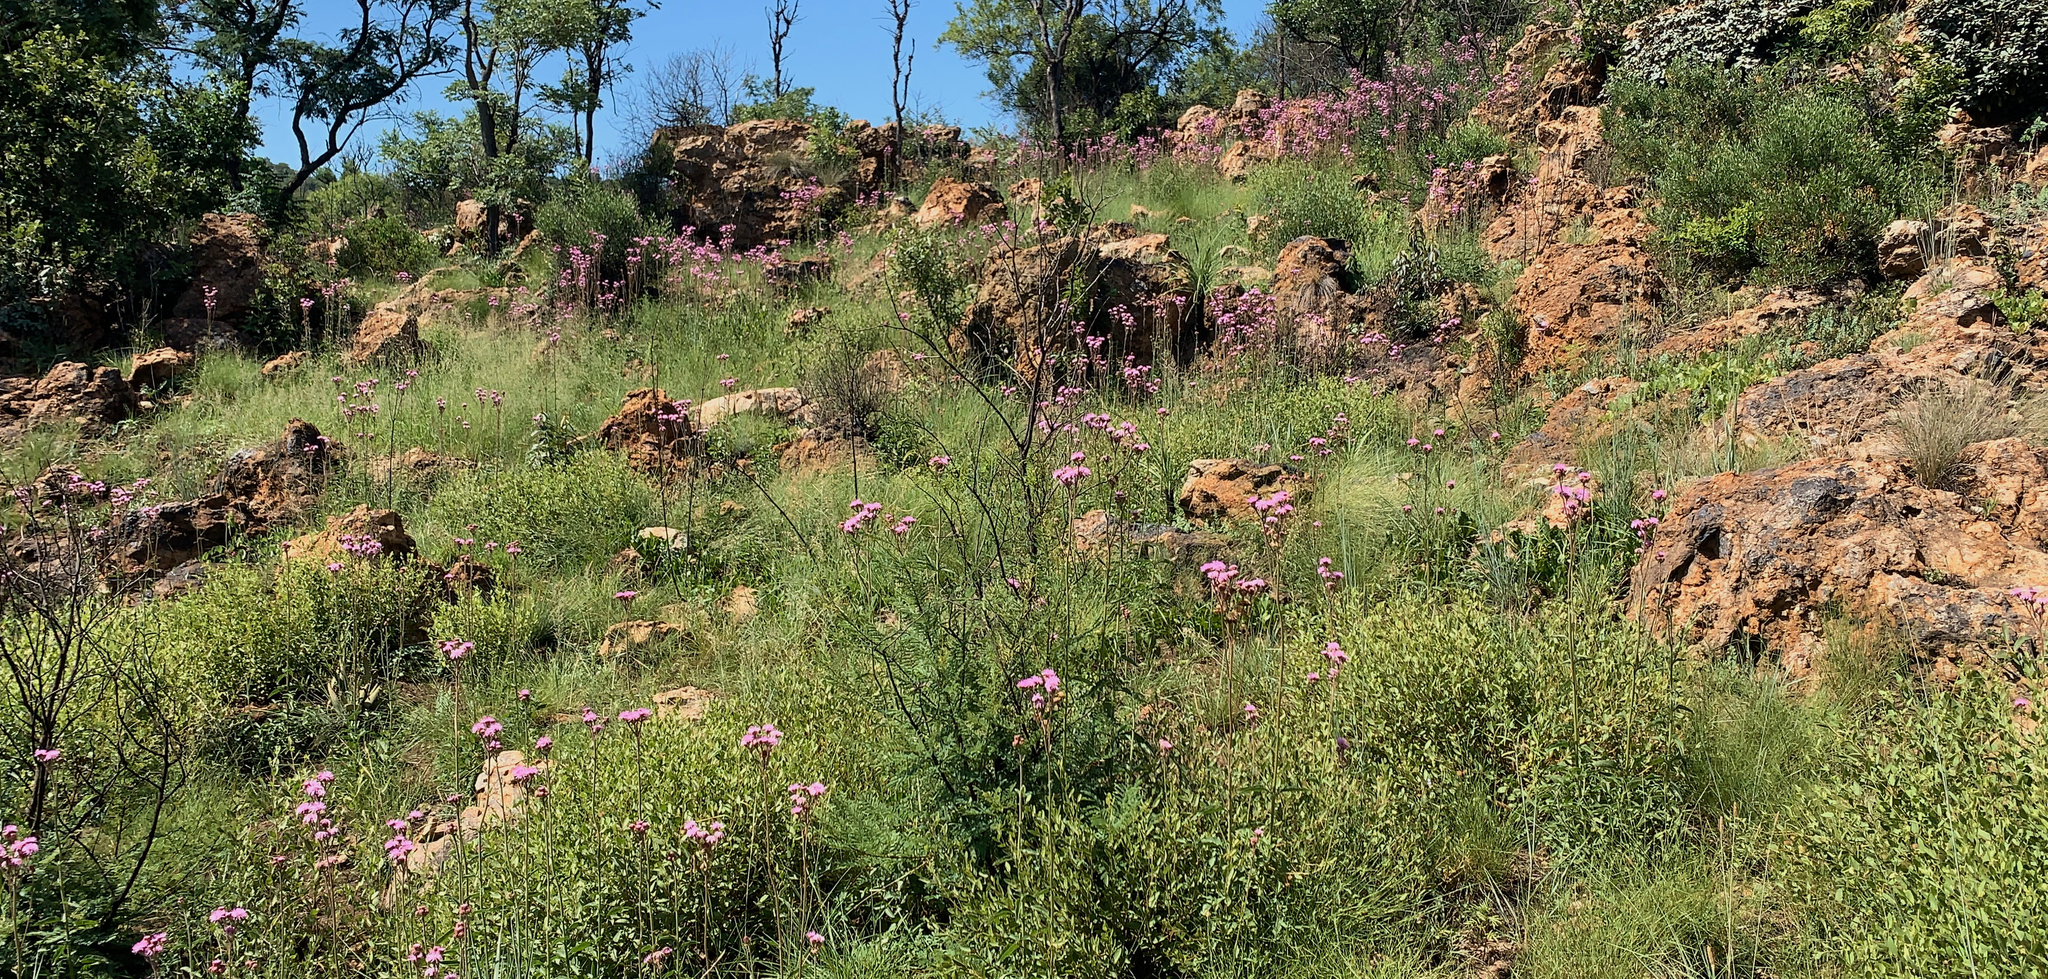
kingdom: Plantae
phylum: Tracheophyta
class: Magnoliopsida
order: Asterales
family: Asteraceae
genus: Campuloclinium
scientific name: Campuloclinium macrocephalum
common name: Pompomweed
